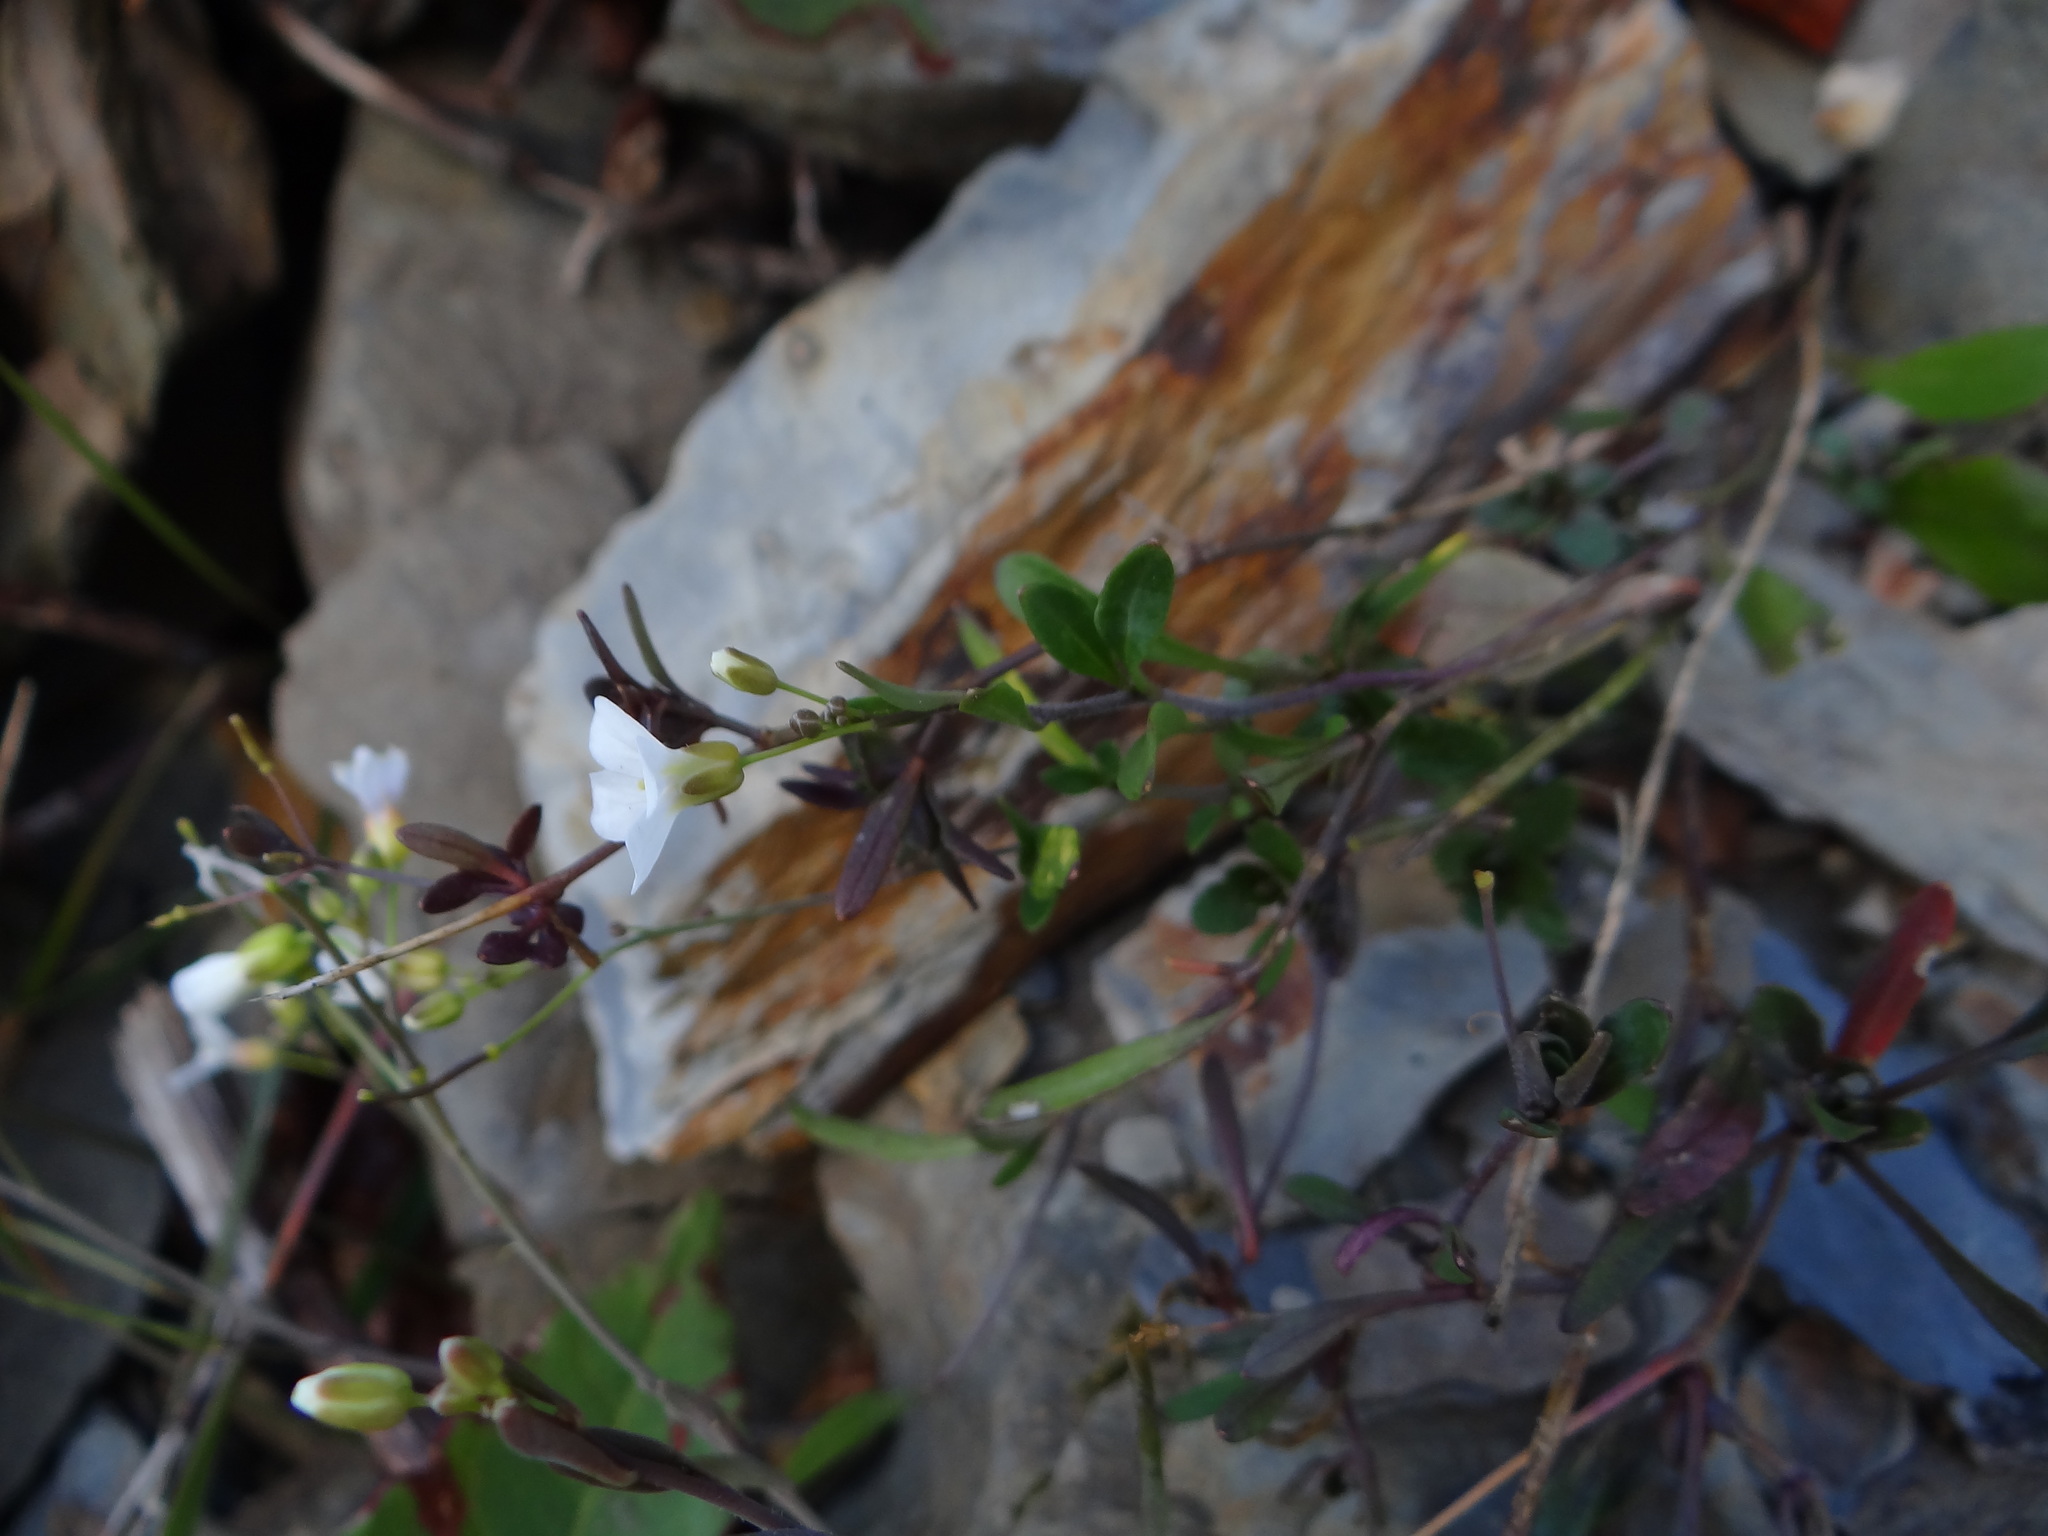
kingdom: Plantae
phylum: Tracheophyta
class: Magnoliopsida
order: Brassicales
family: Brassicaceae
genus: Arabidopsis
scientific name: Arabidopsis lyrata
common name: Lyrate rockcress
